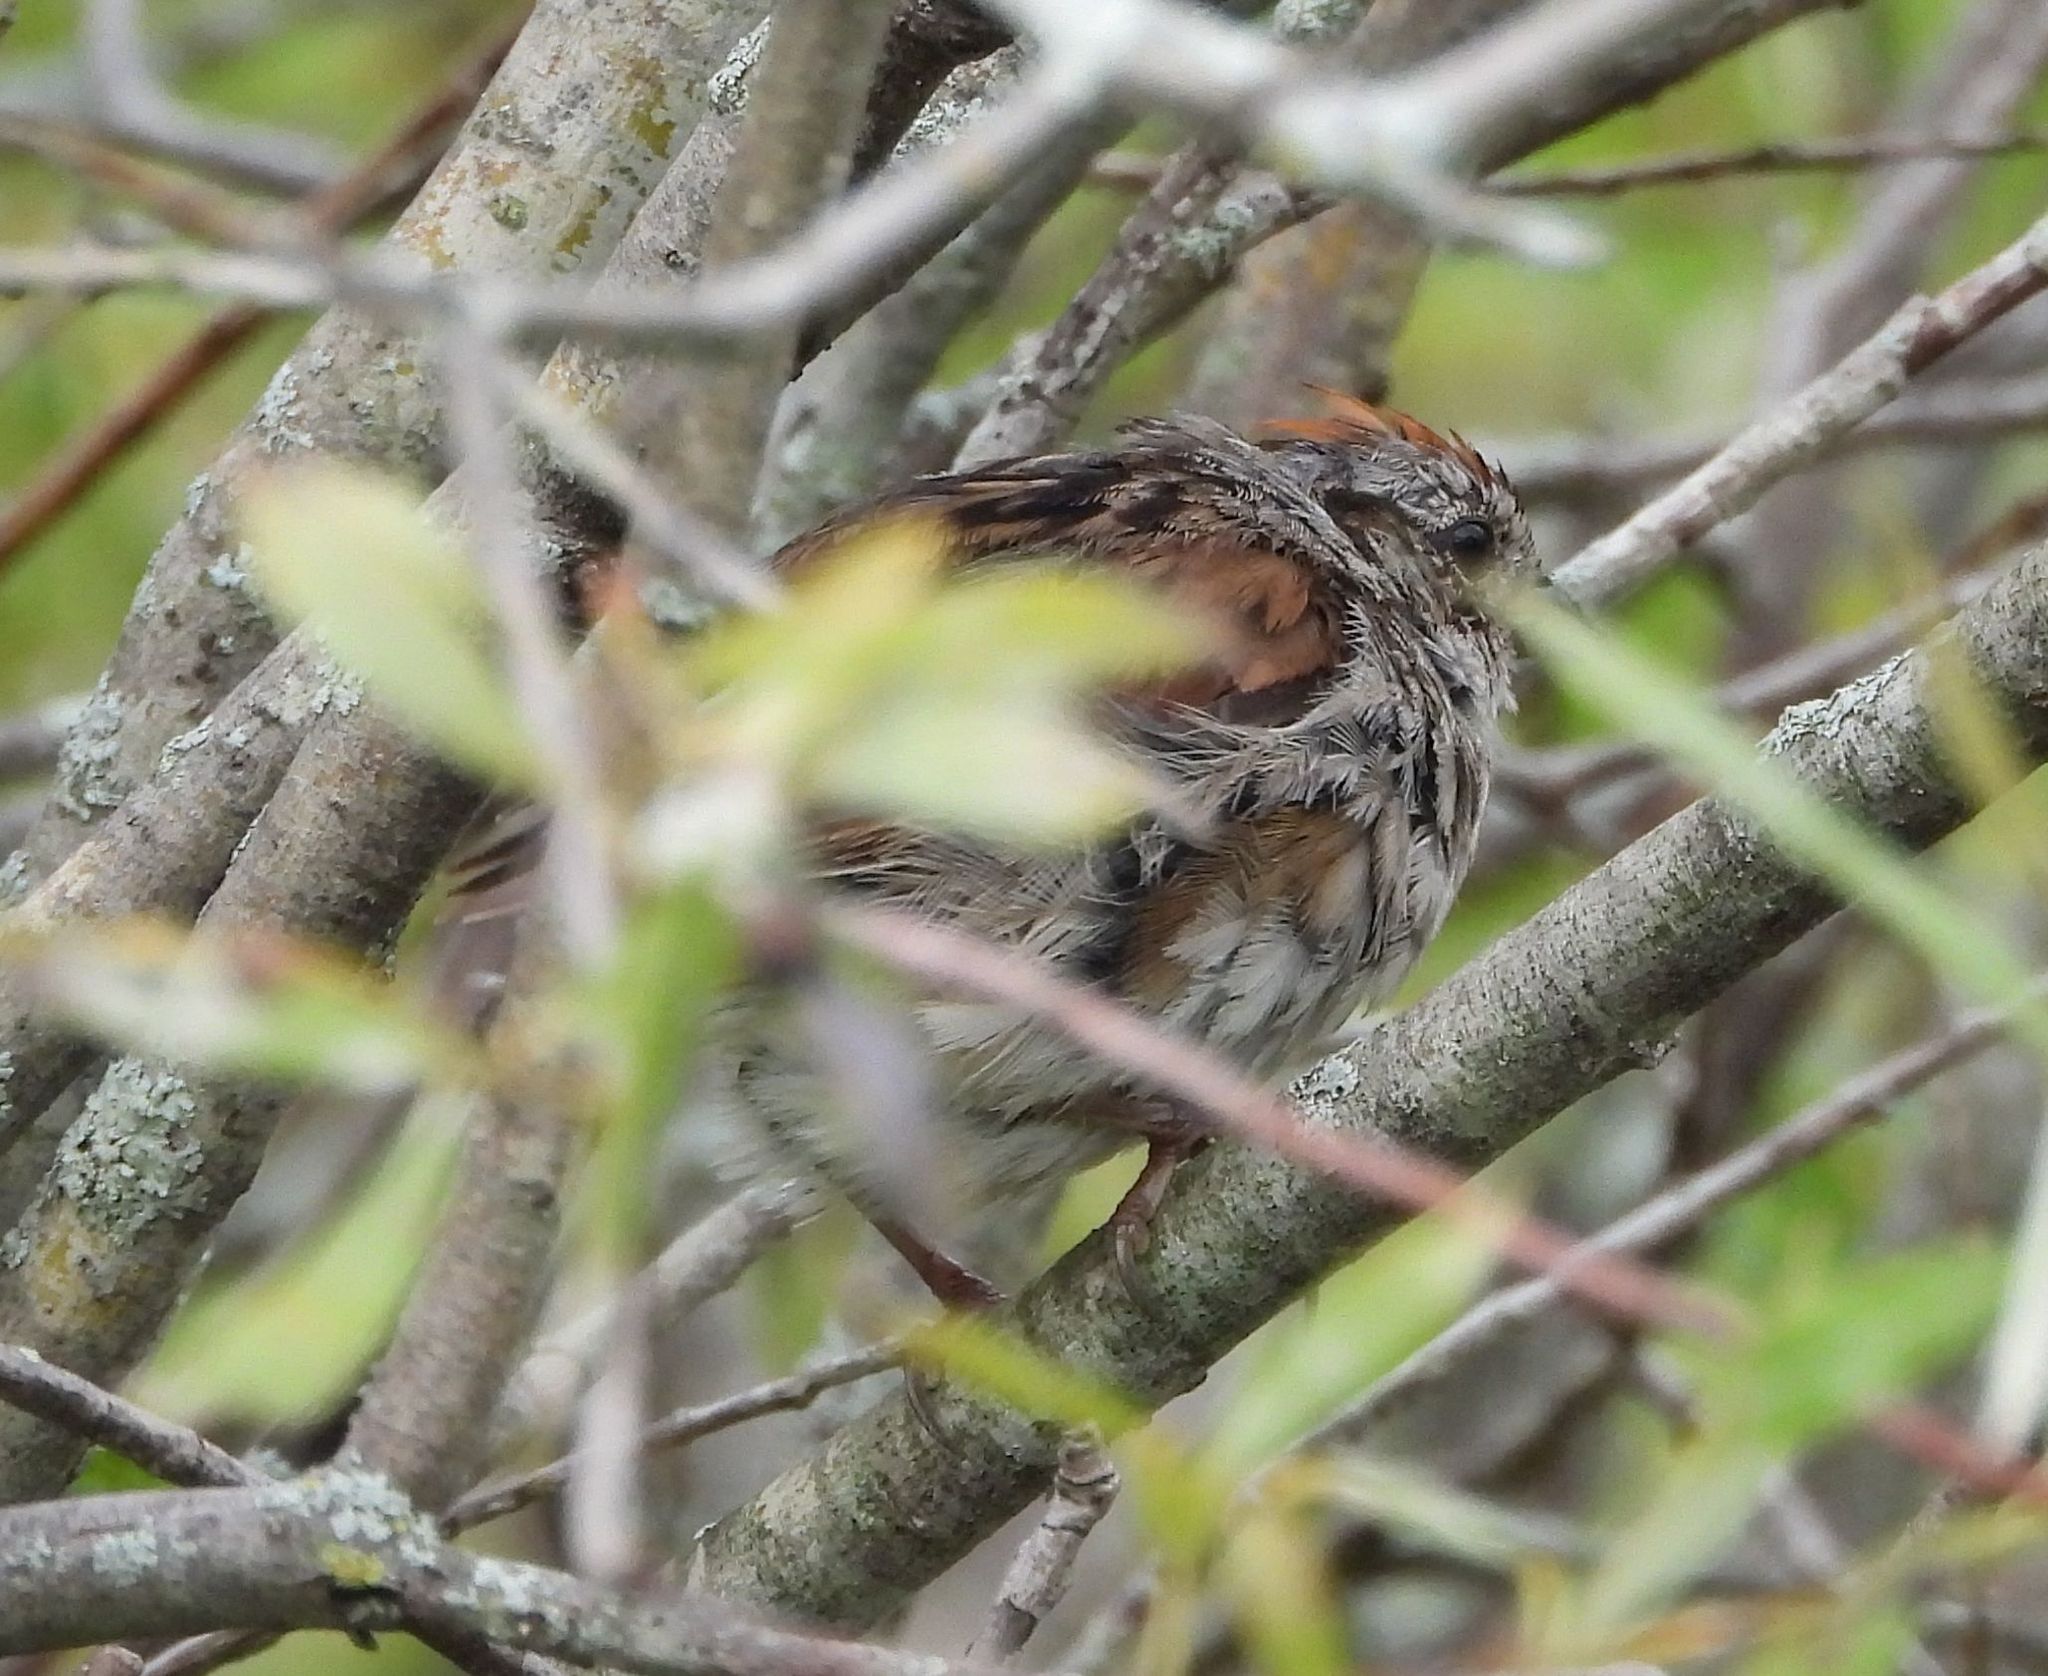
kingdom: Animalia
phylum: Chordata
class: Aves
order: Passeriformes
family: Passerellidae
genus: Melospiza
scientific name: Melospiza georgiana
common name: Swamp sparrow
